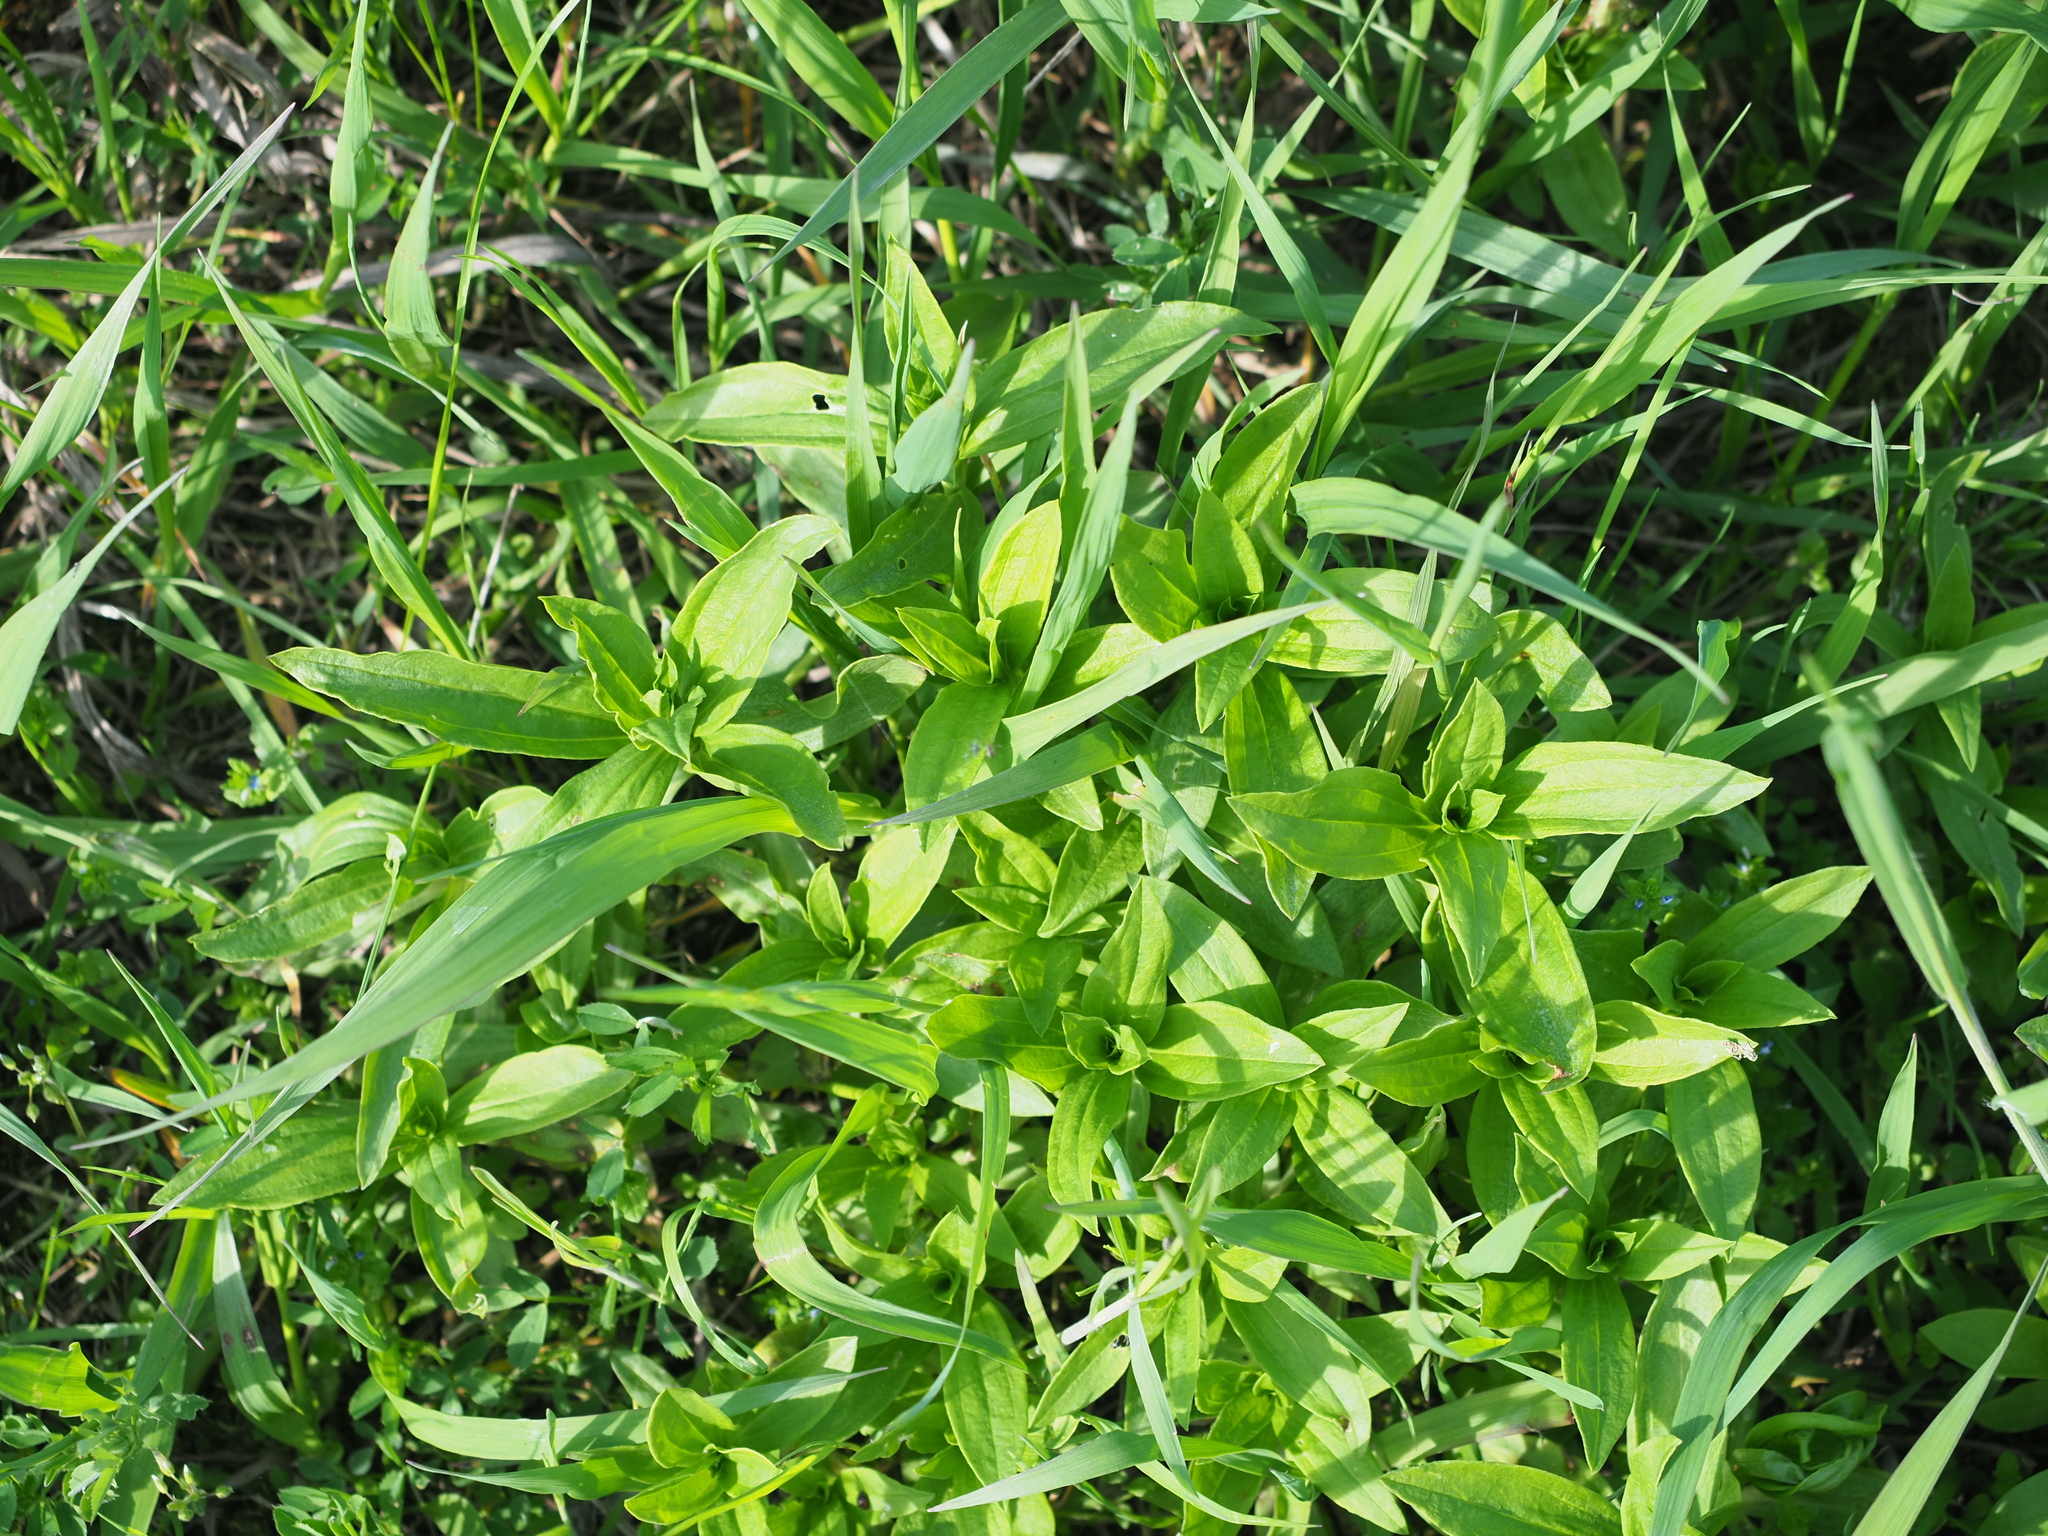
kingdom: Plantae
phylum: Tracheophyta
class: Magnoliopsida
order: Caryophyllales
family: Caryophyllaceae
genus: Saponaria
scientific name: Saponaria officinalis
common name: Soapwort
